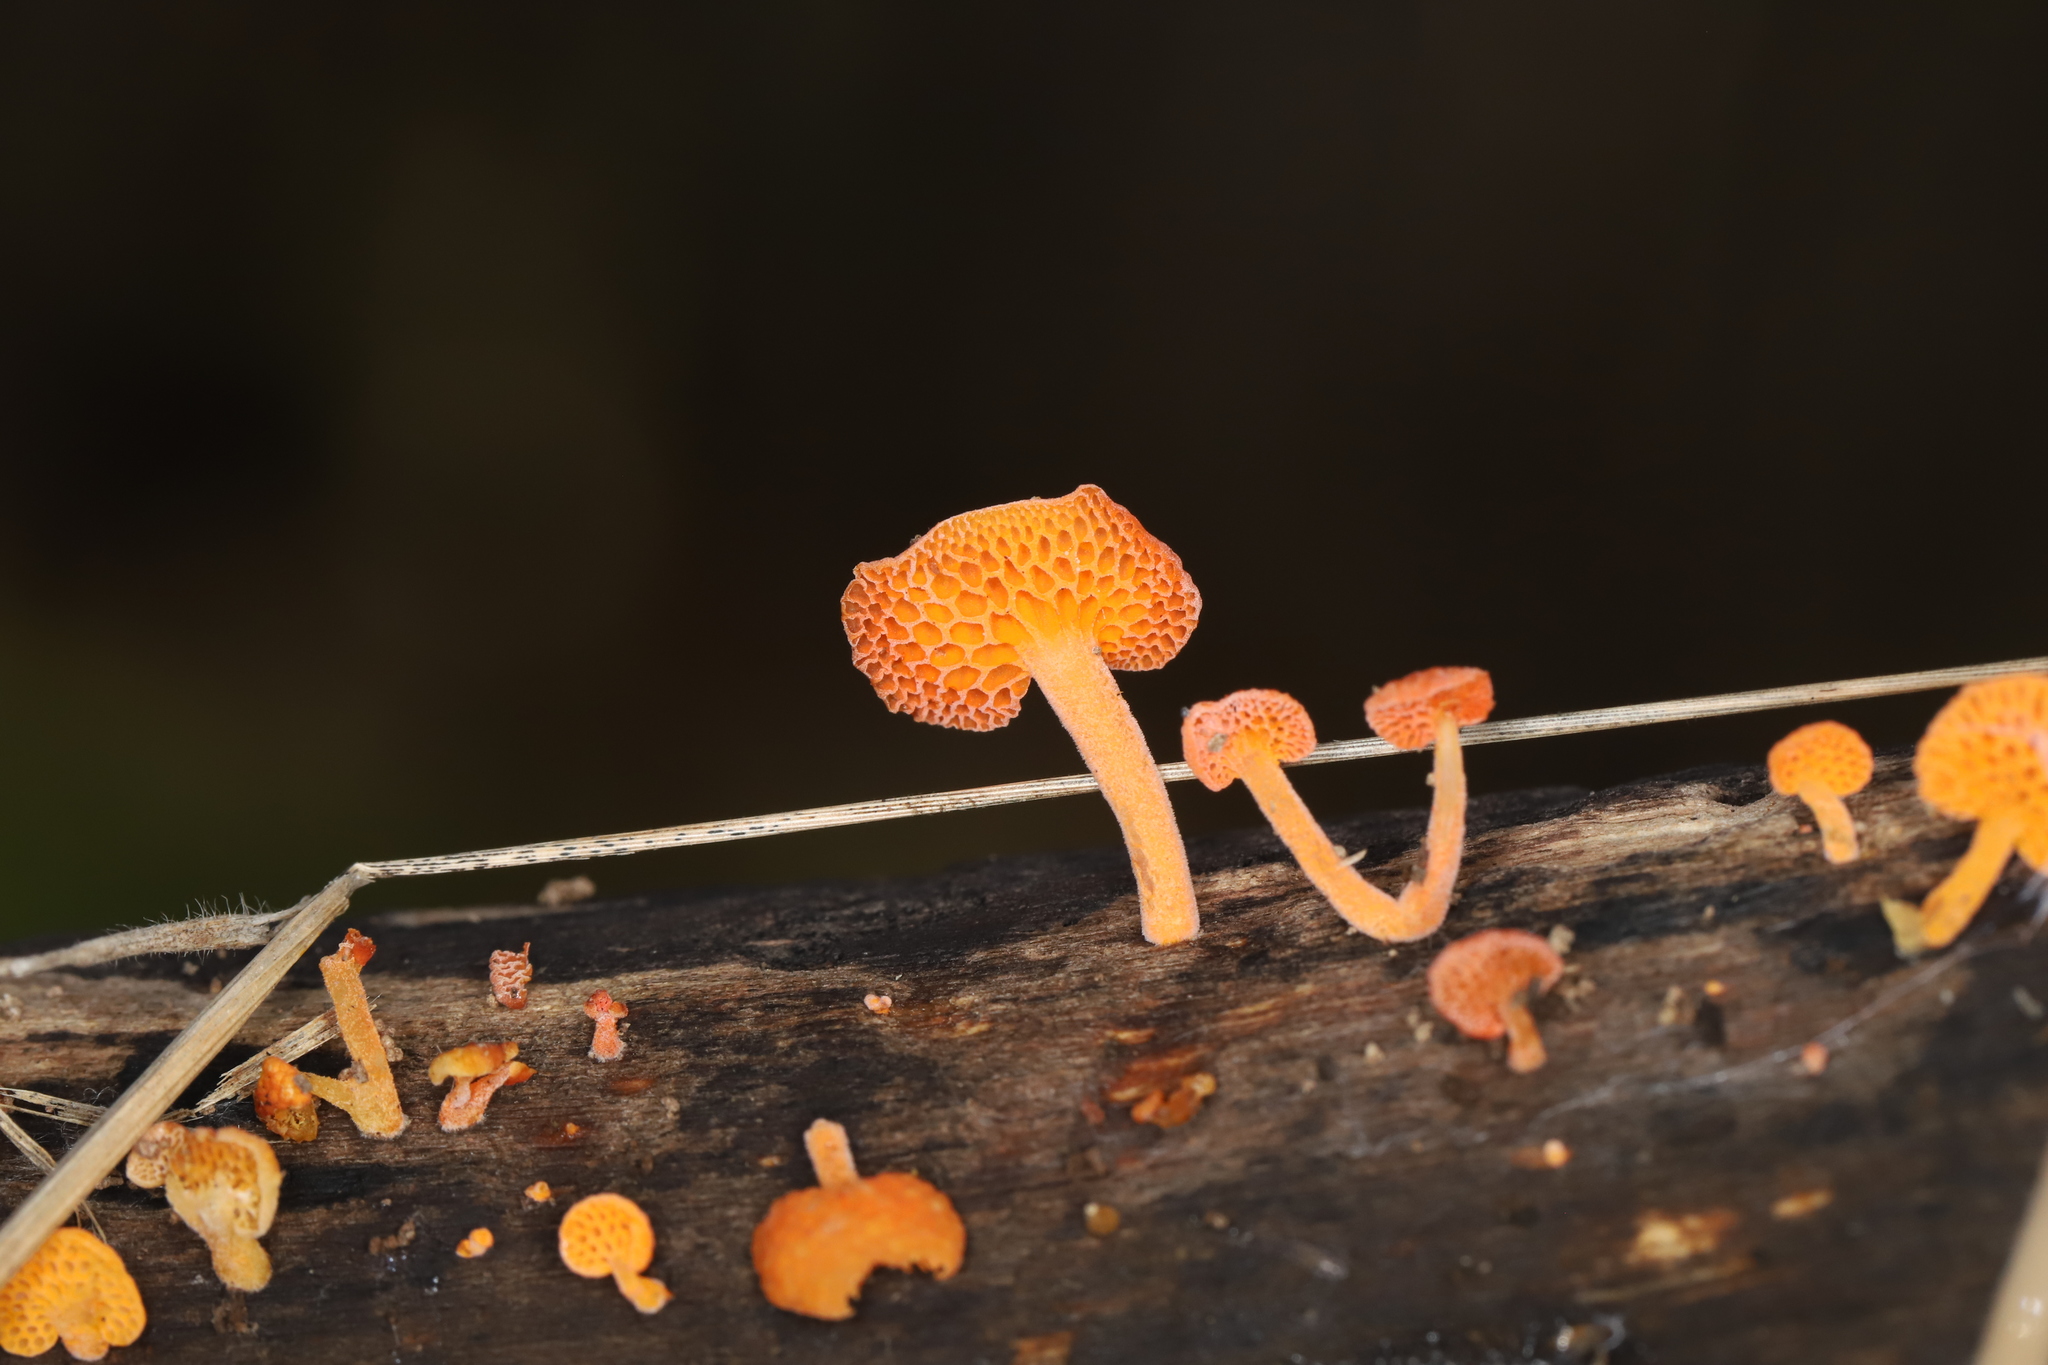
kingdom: Fungi
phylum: Basidiomycota
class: Agaricomycetes
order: Agaricales
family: Mycenaceae
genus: Favolaschia
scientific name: Favolaschia claudopus
